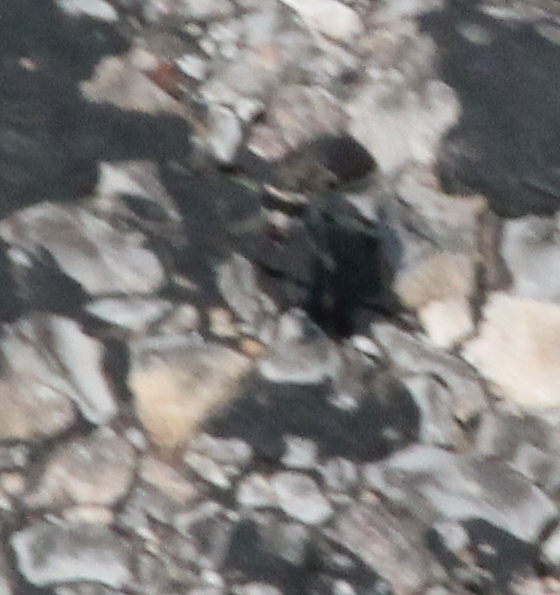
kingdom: Animalia
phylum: Arthropoda
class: Insecta
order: Coleoptera
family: Carabidae
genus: Cicindela
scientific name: Cicindela punctulata
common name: Punctured tiger beetle
